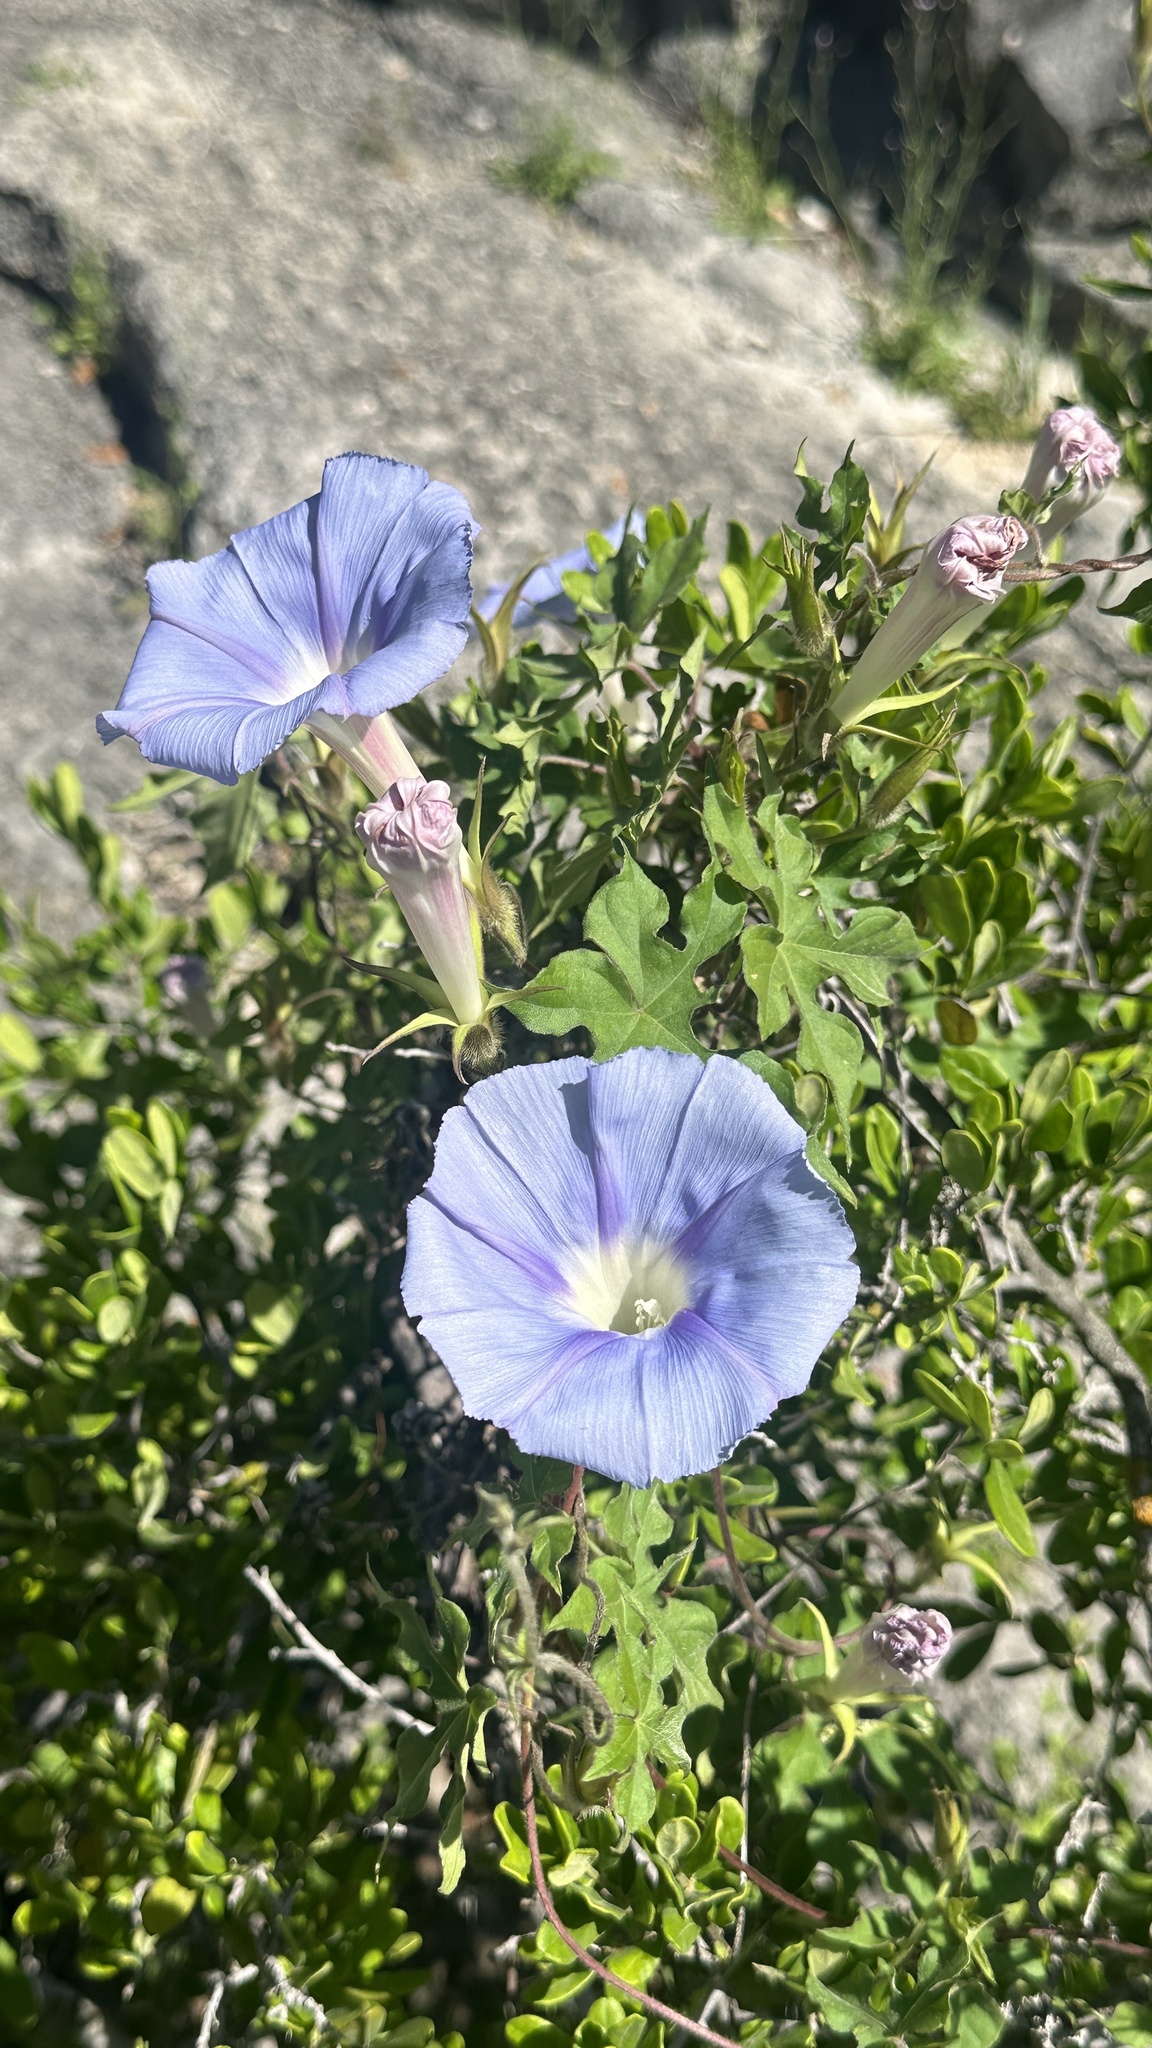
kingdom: Plantae
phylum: Tracheophyta
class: Magnoliopsida
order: Solanales
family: Convolvulaceae
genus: Ipomoea
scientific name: Ipomoea lindheimeri
